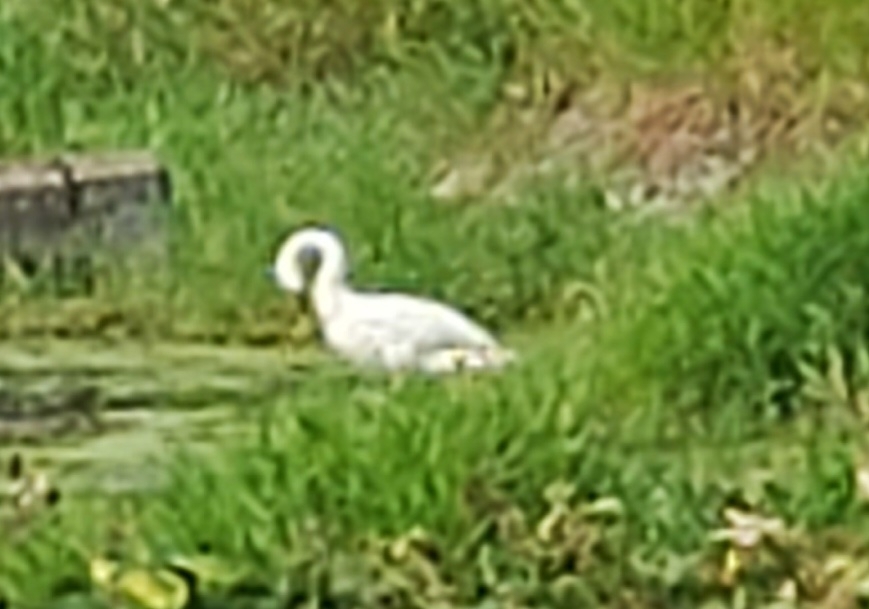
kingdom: Animalia
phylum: Chordata
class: Aves
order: Anseriformes
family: Anatidae
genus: Cygnus
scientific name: Cygnus buccinator
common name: Trumpeter swan
